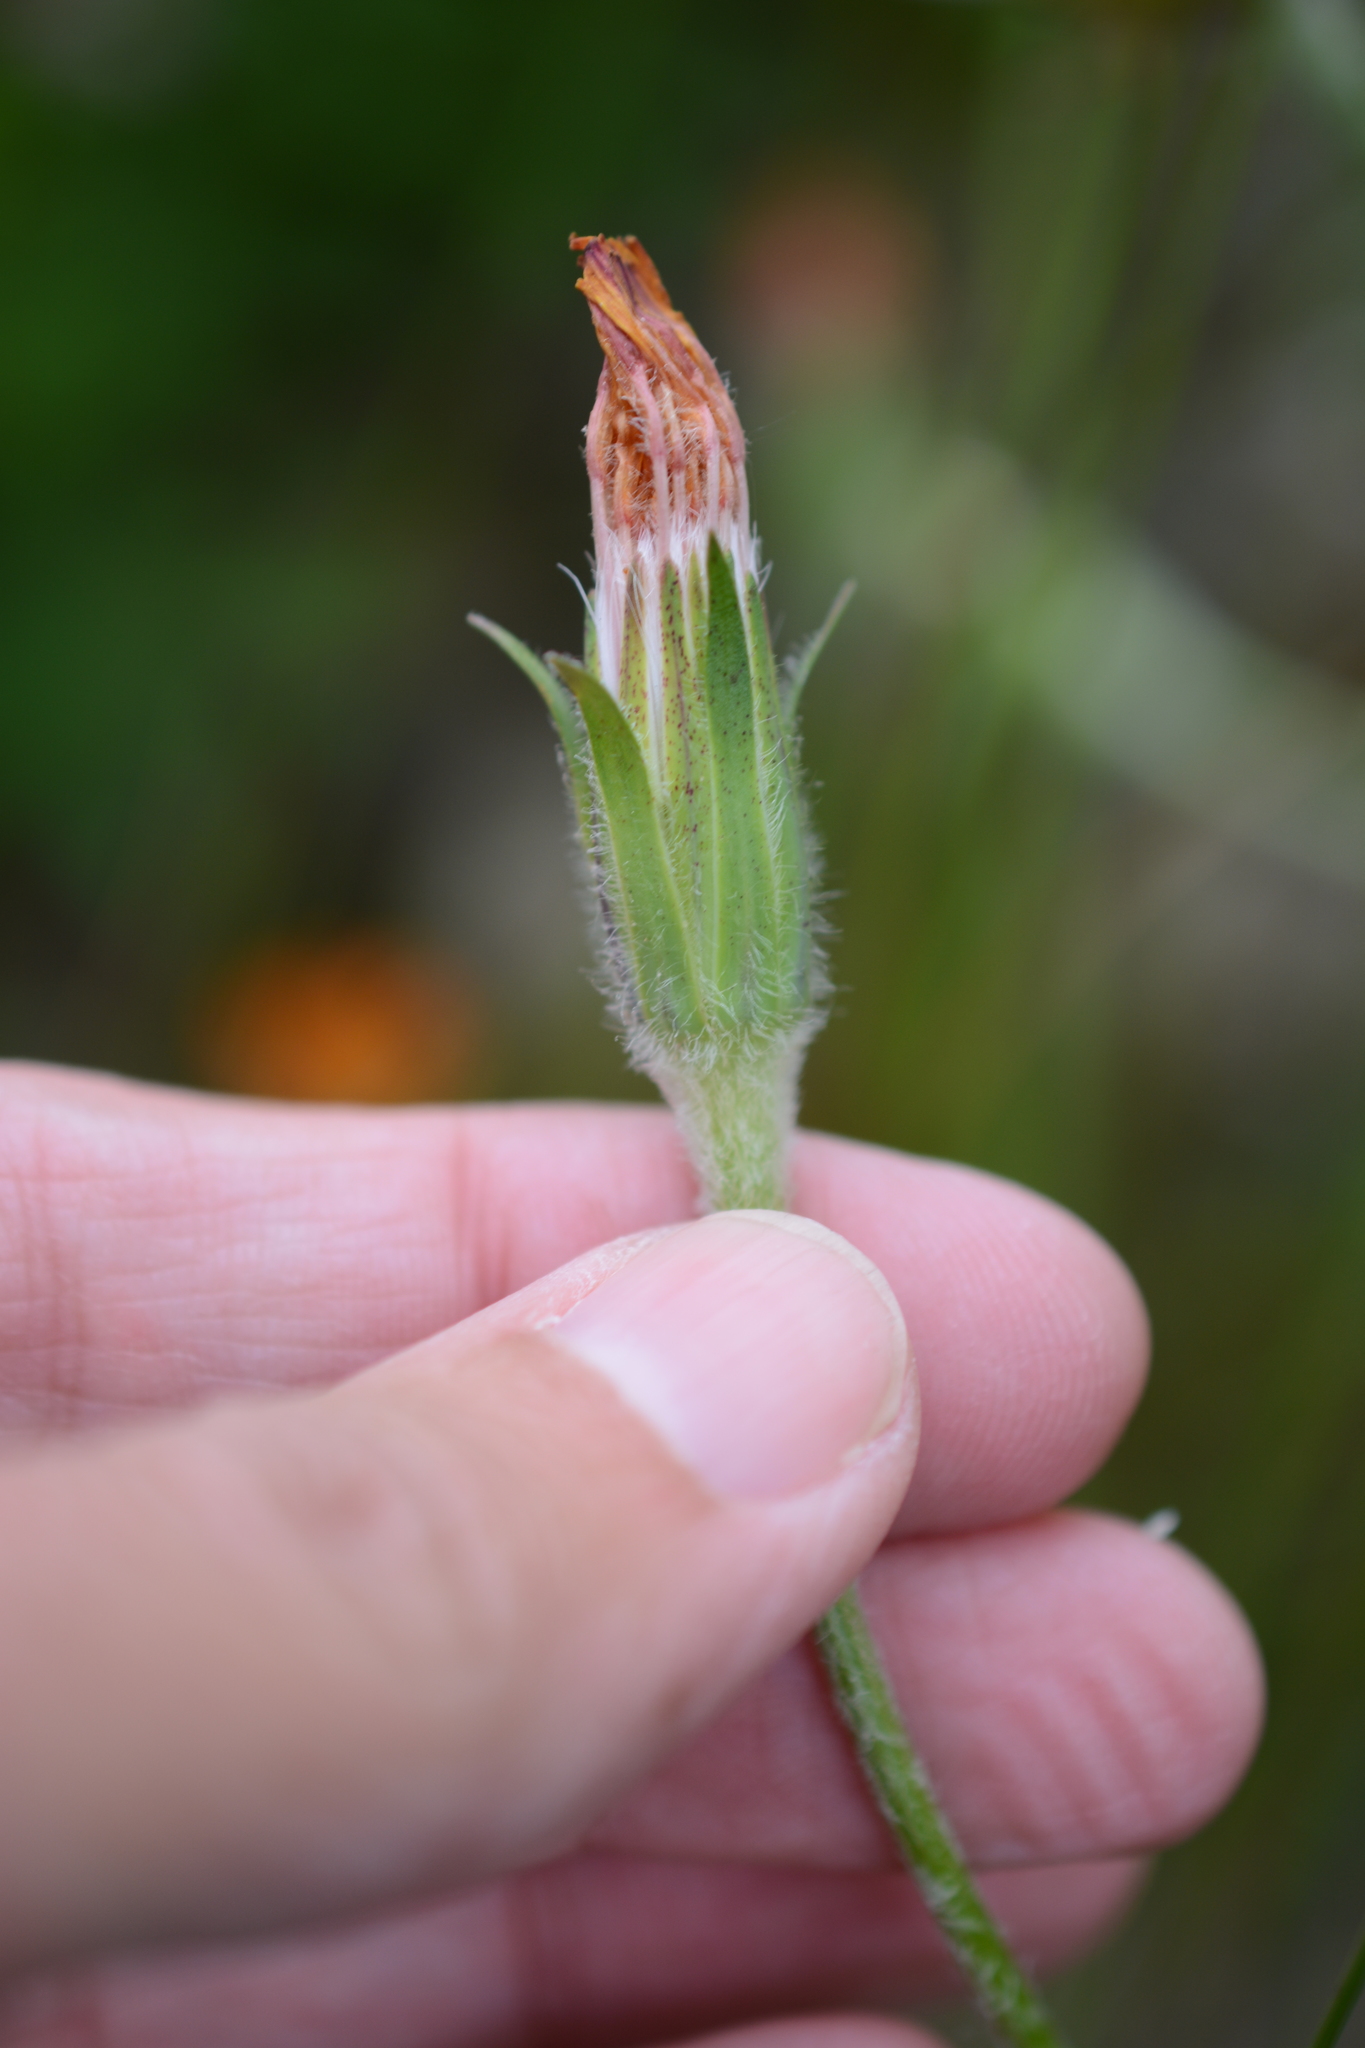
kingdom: Plantae
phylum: Tracheophyta
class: Magnoliopsida
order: Asterales
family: Asteraceae
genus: Agoseris
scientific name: Agoseris aurantiaca
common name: Mountain agoseris
